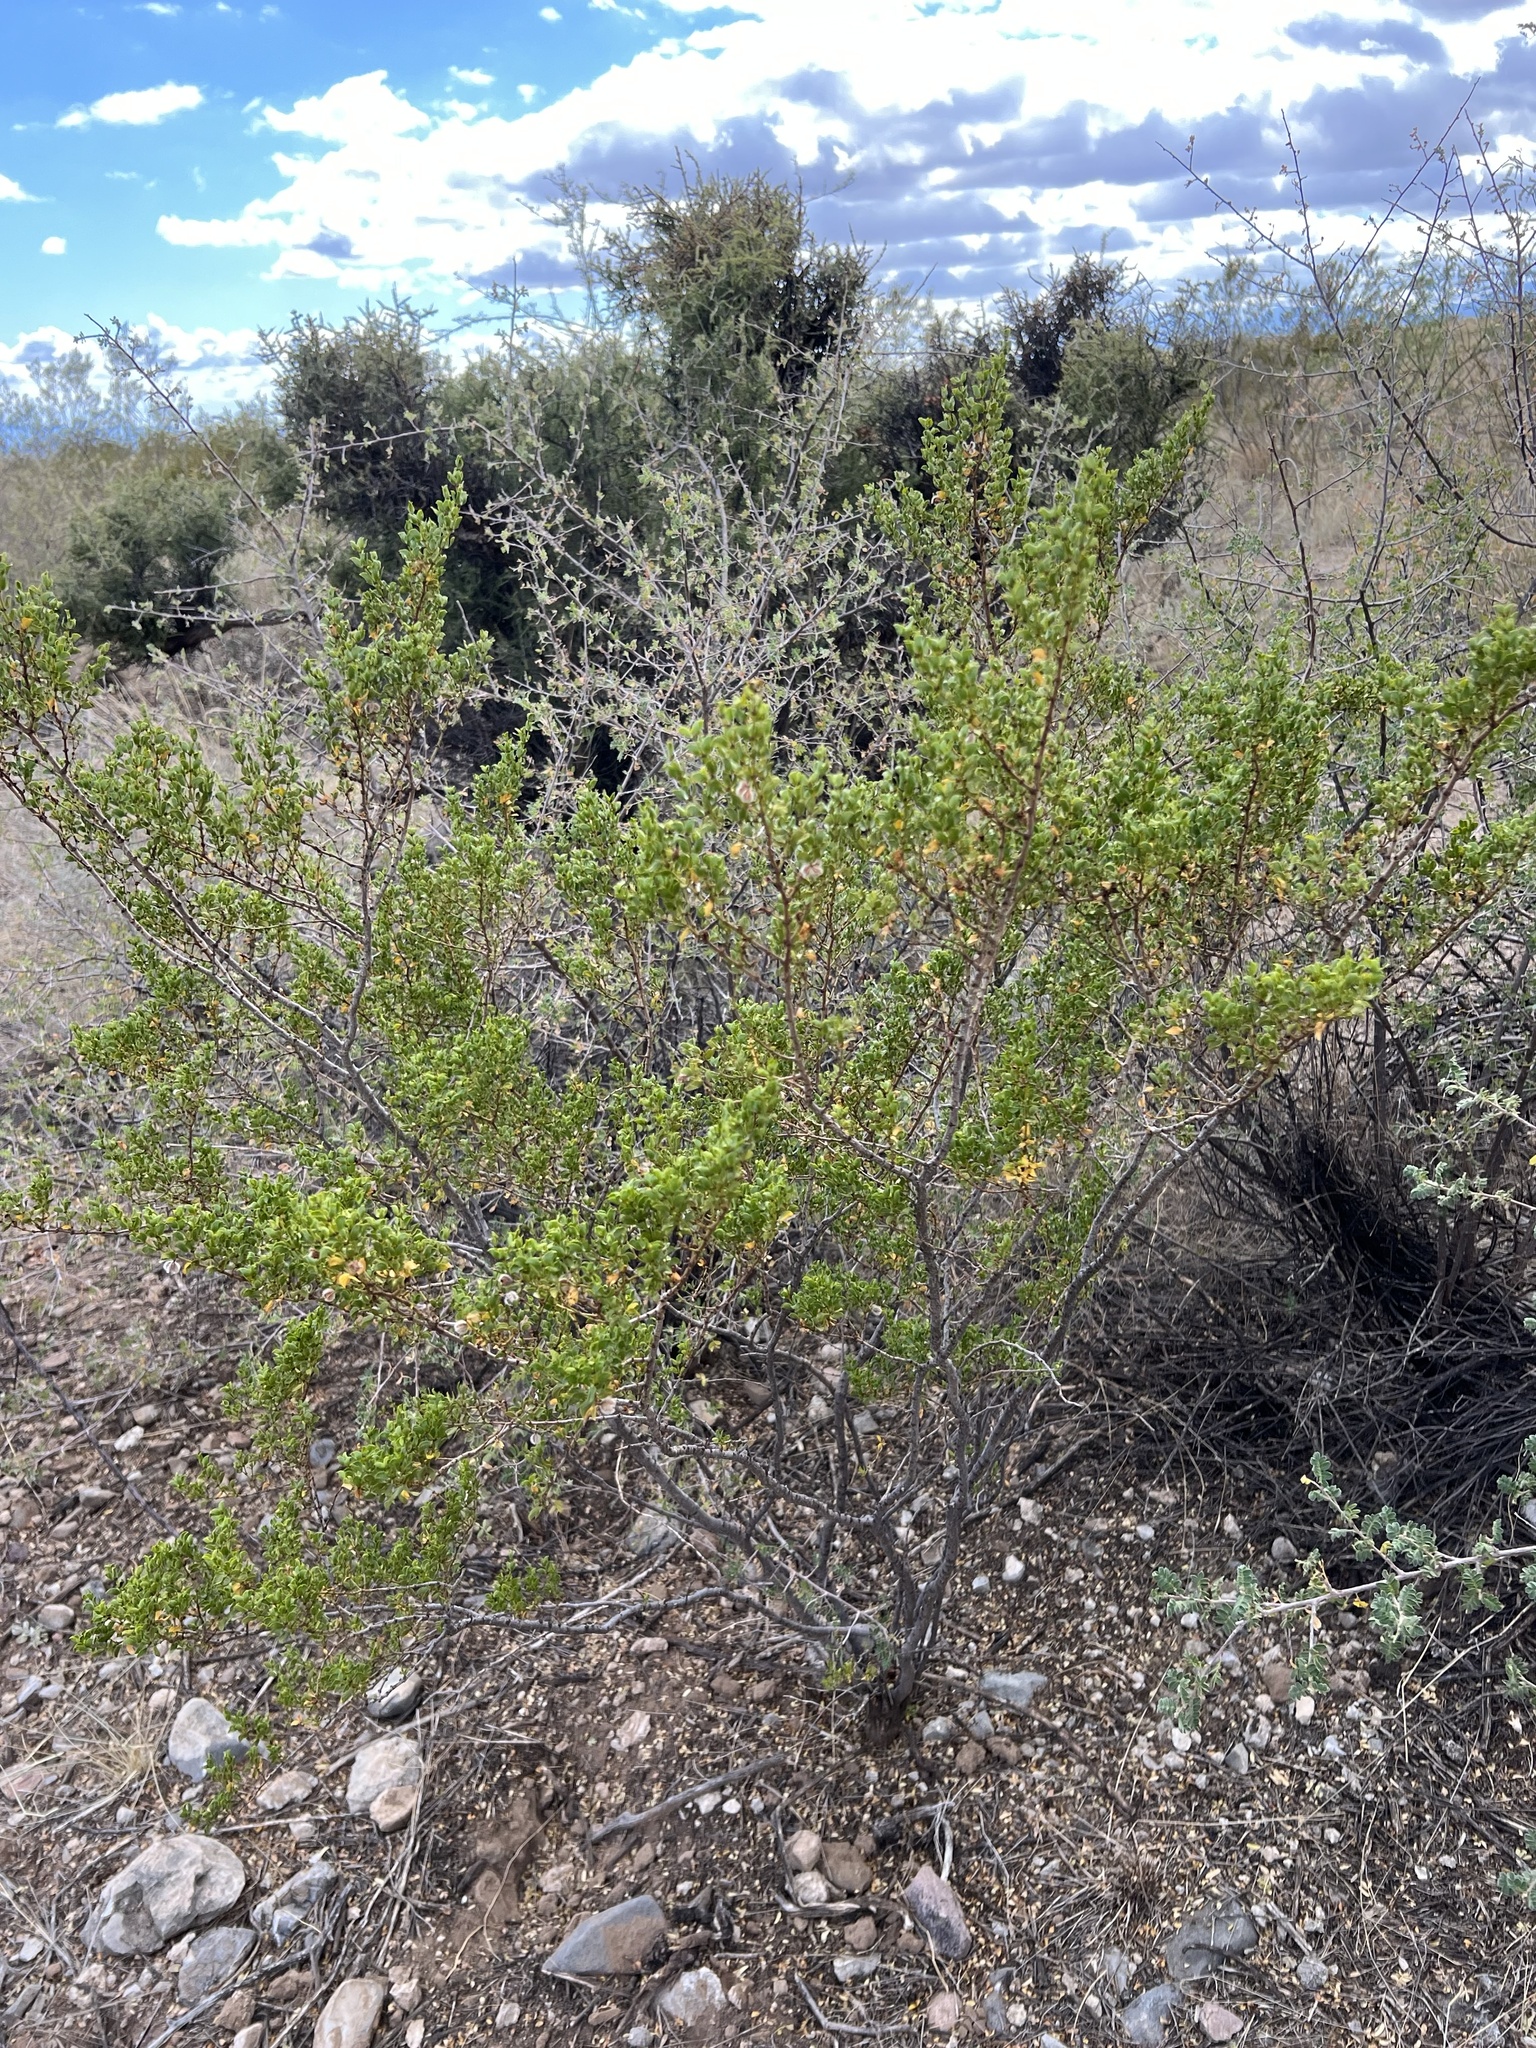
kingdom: Plantae
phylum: Tracheophyta
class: Magnoliopsida
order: Zygophyllales
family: Zygophyllaceae
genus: Larrea
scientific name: Larrea tridentata
